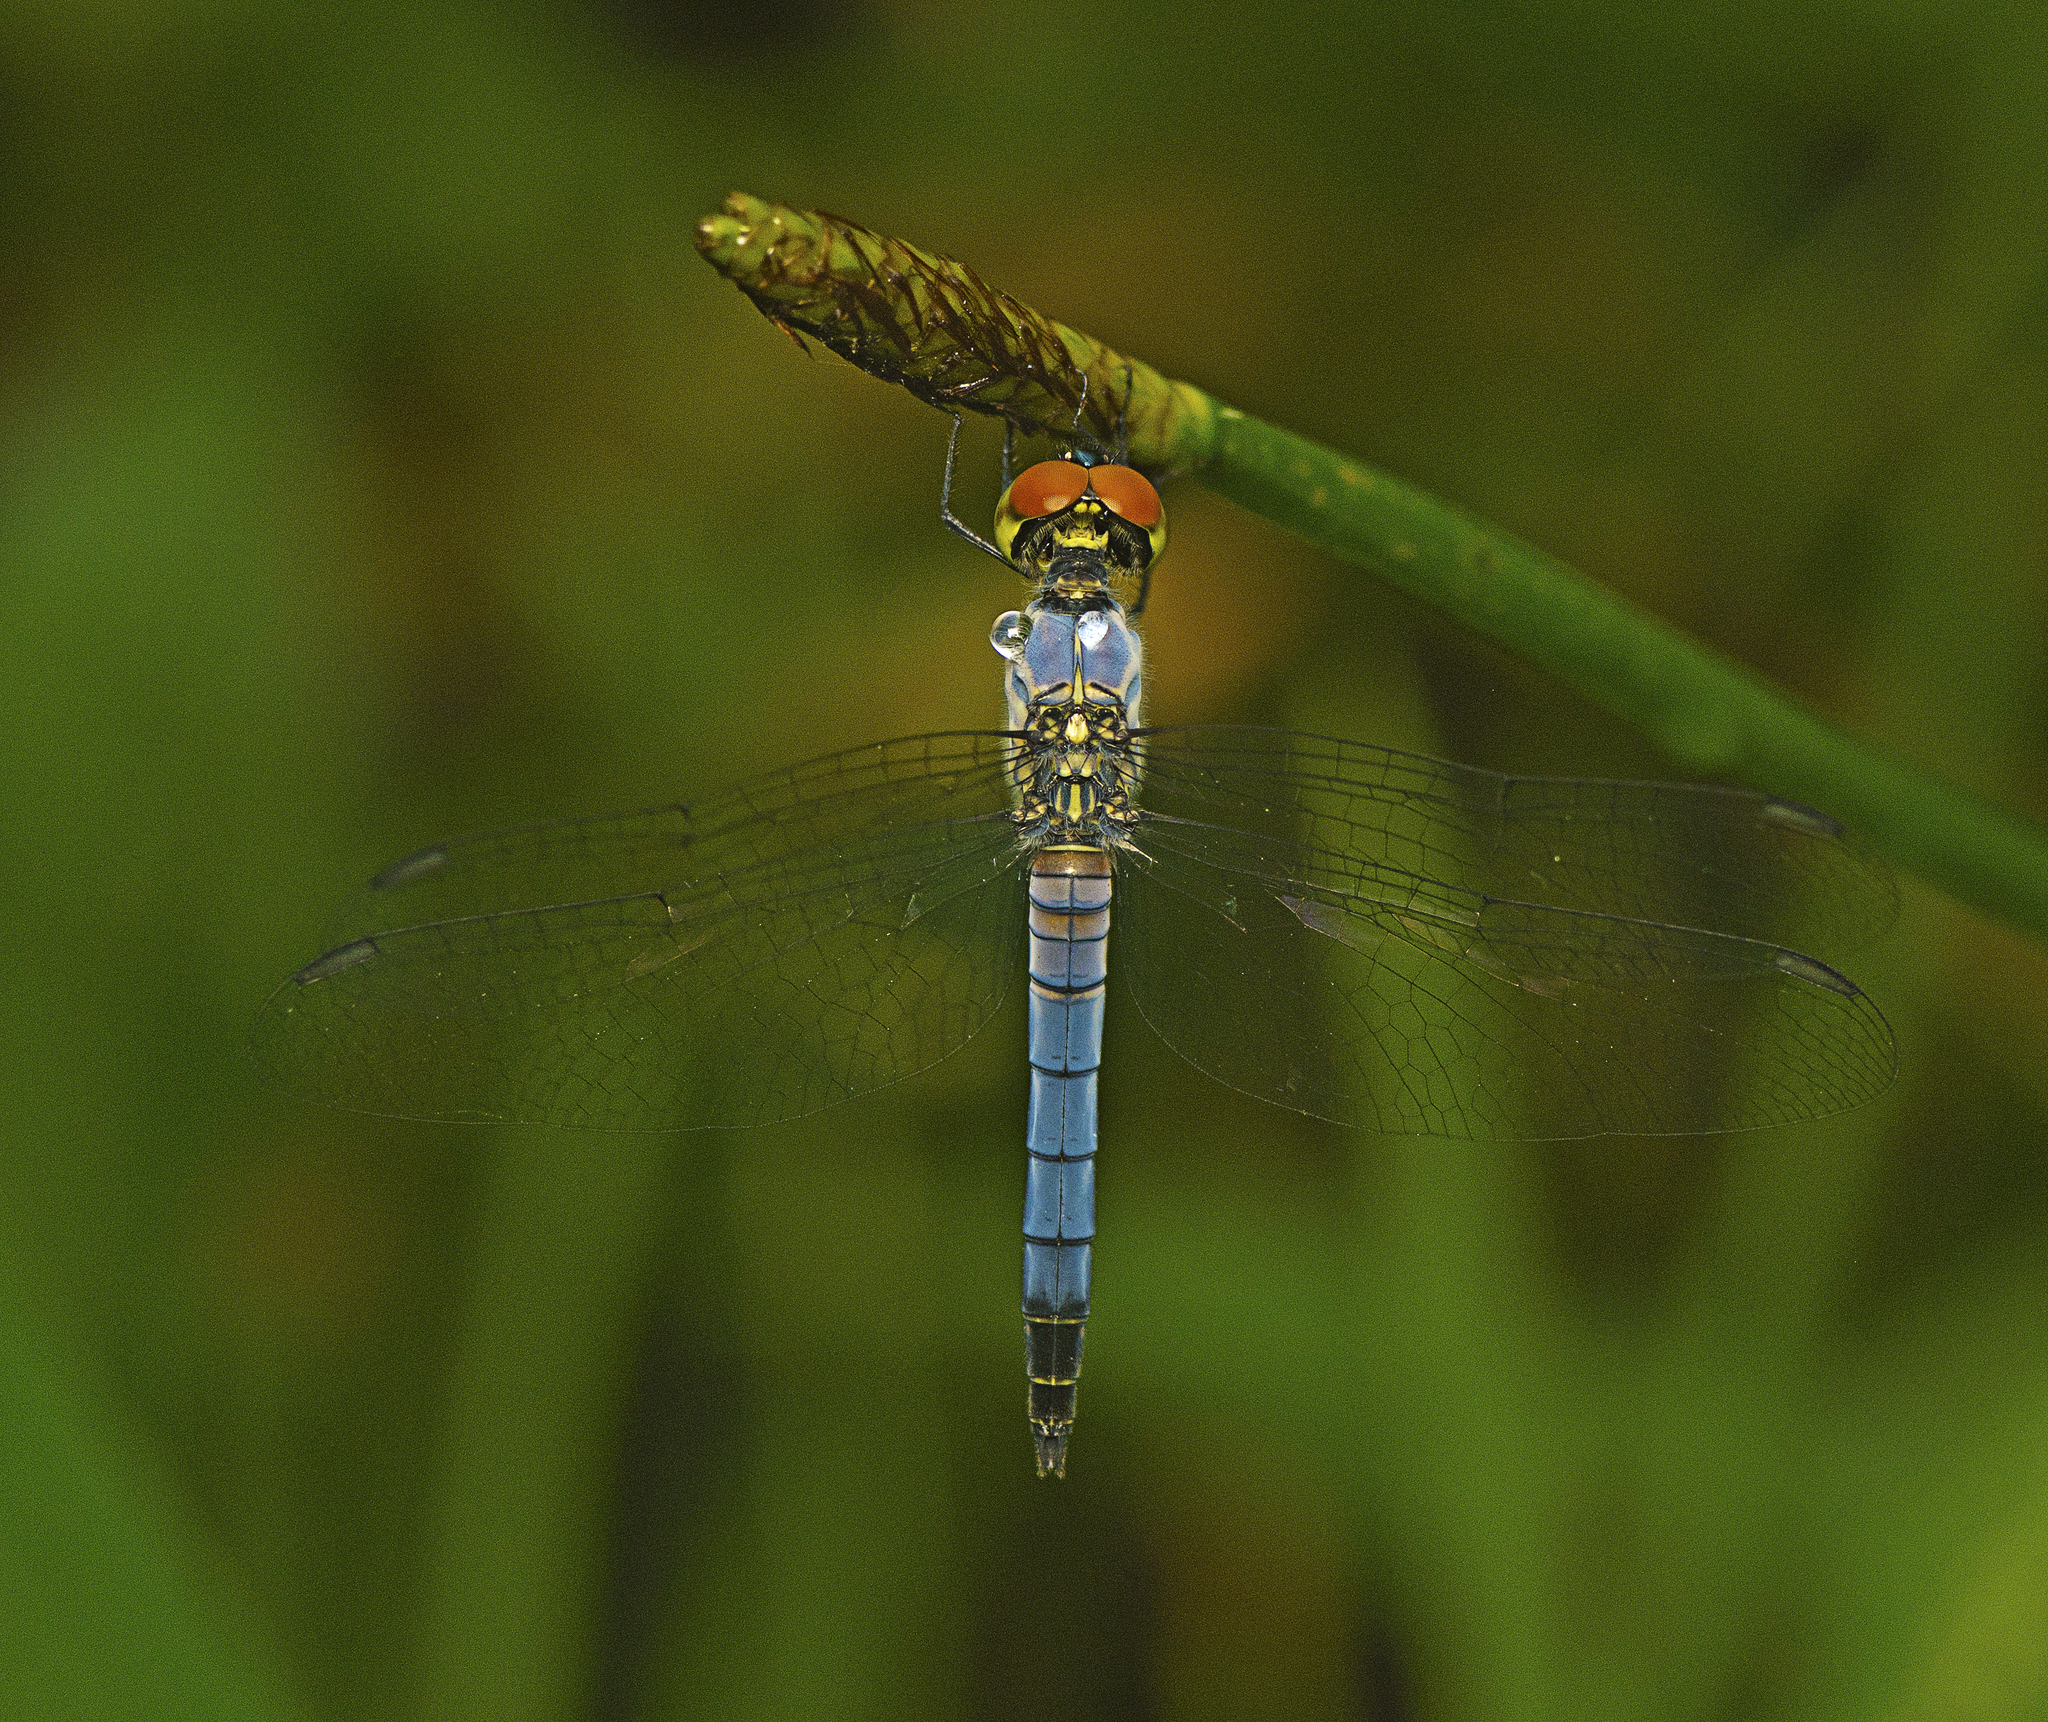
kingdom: Animalia
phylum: Arthropoda
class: Insecta
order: Odonata
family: Libellulidae
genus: Brachydiplax
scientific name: Brachydiplax denticauda
